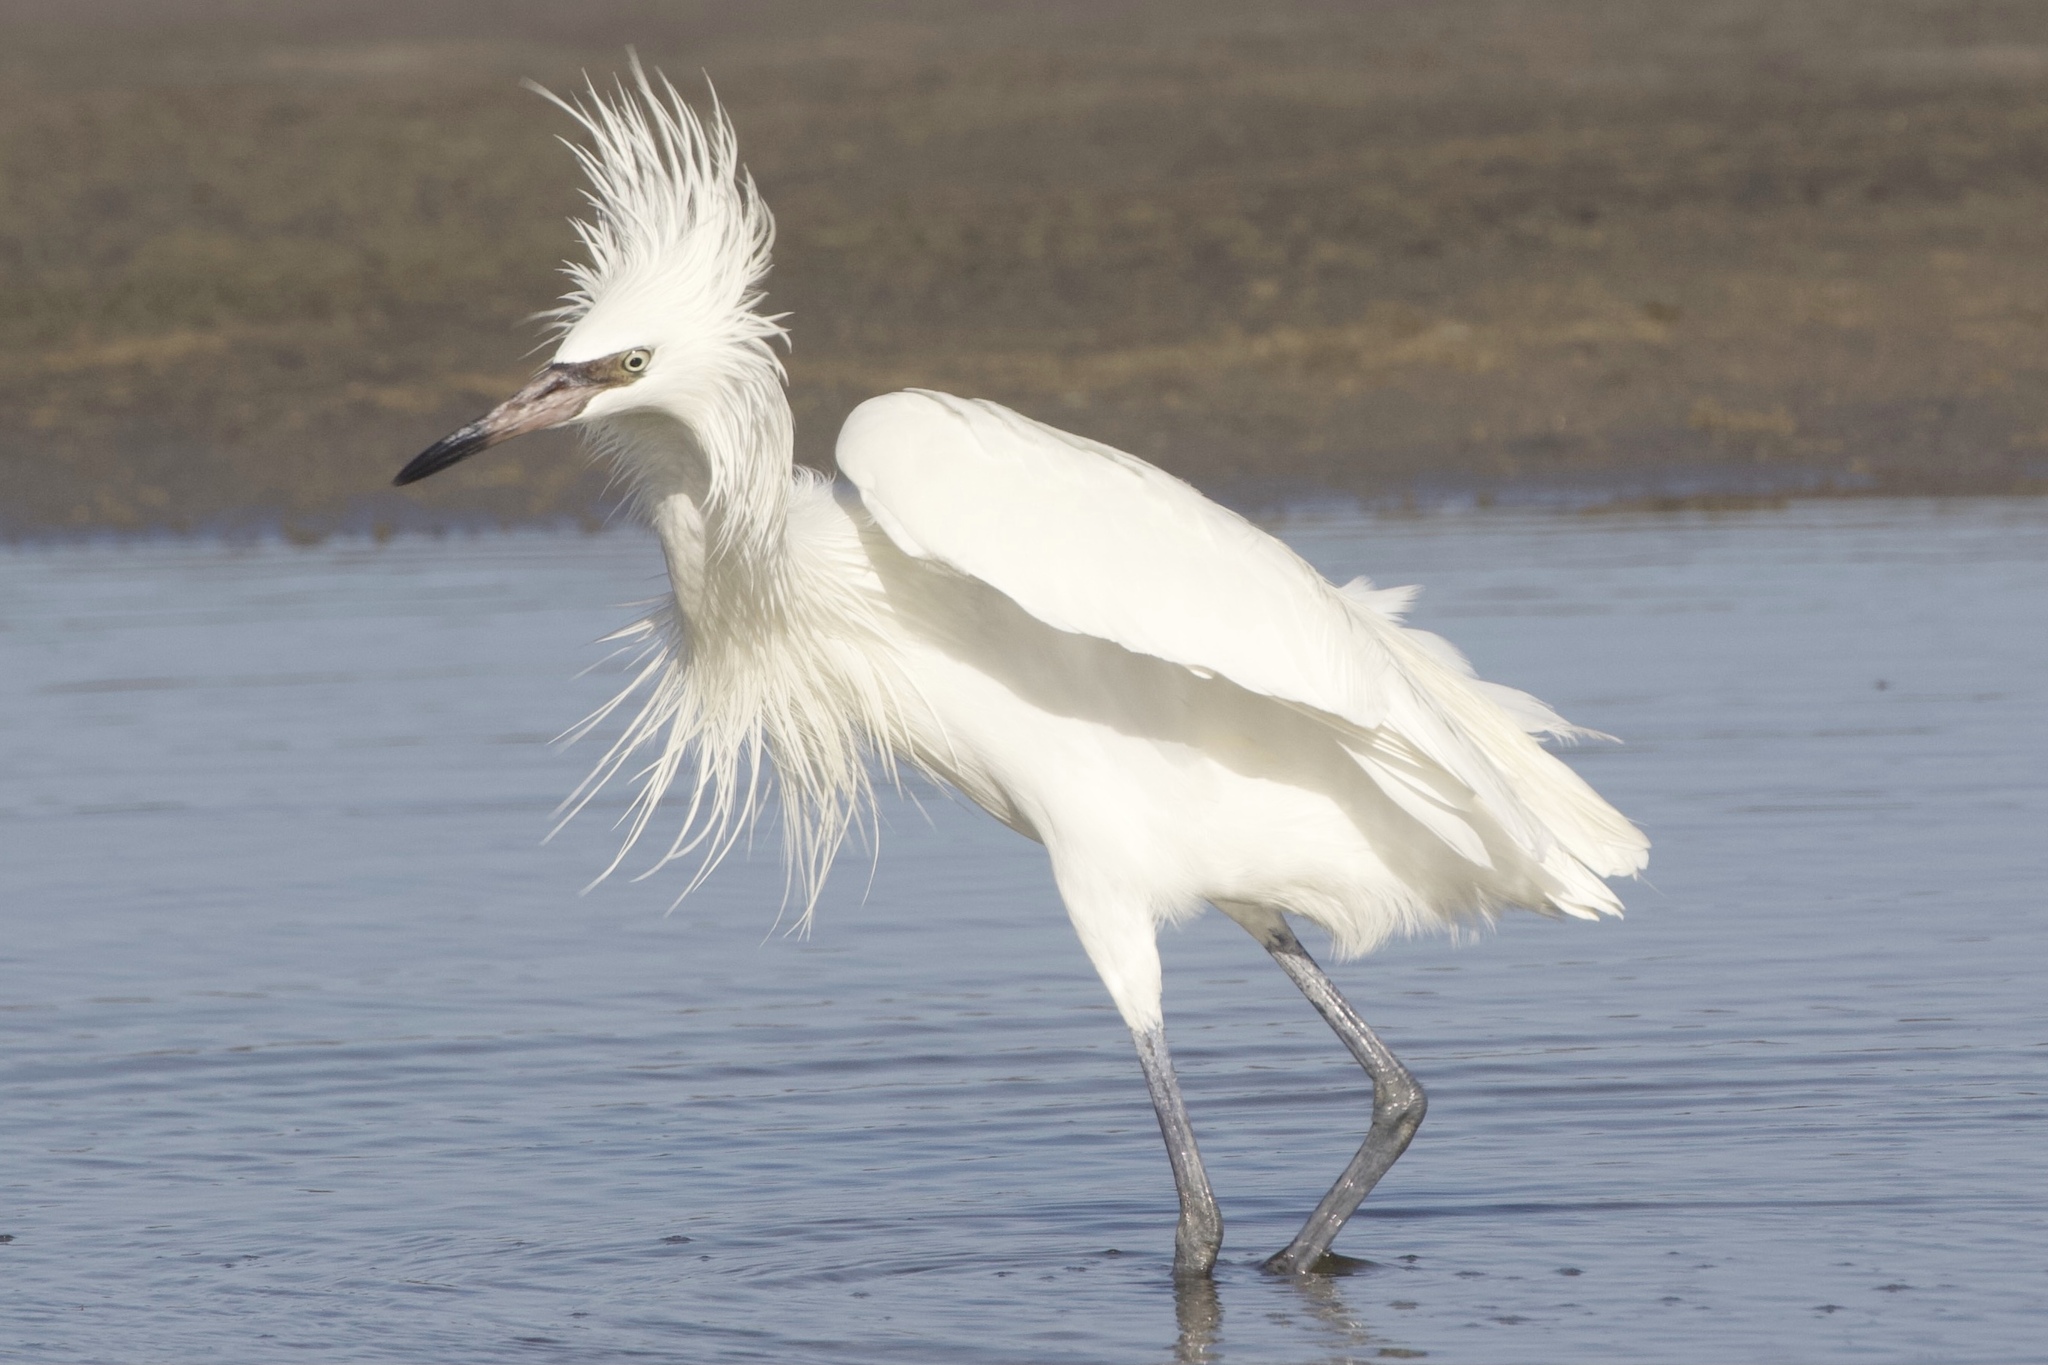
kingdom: Animalia
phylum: Chordata
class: Aves
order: Pelecaniformes
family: Ardeidae
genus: Egretta
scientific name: Egretta rufescens
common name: Reddish egret
